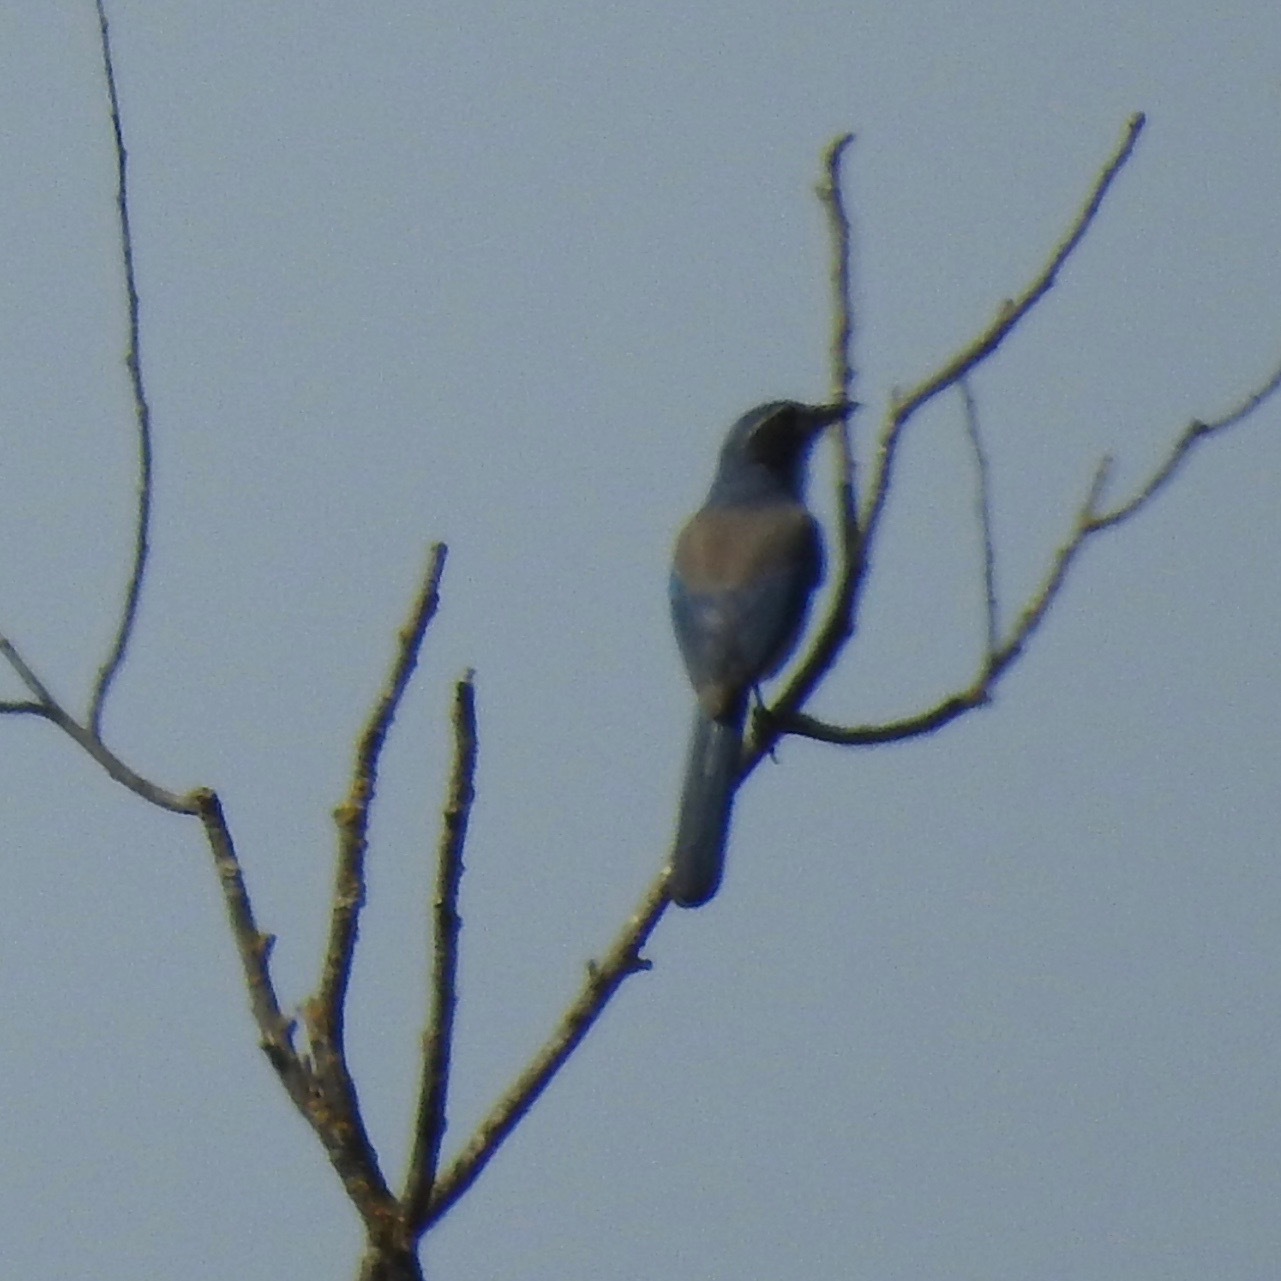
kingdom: Animalia
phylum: Chordata
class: Aves
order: Passeriformes
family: Corvidae
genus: Aphelocoma
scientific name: Aphelocoma californica
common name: California scrub-jay
